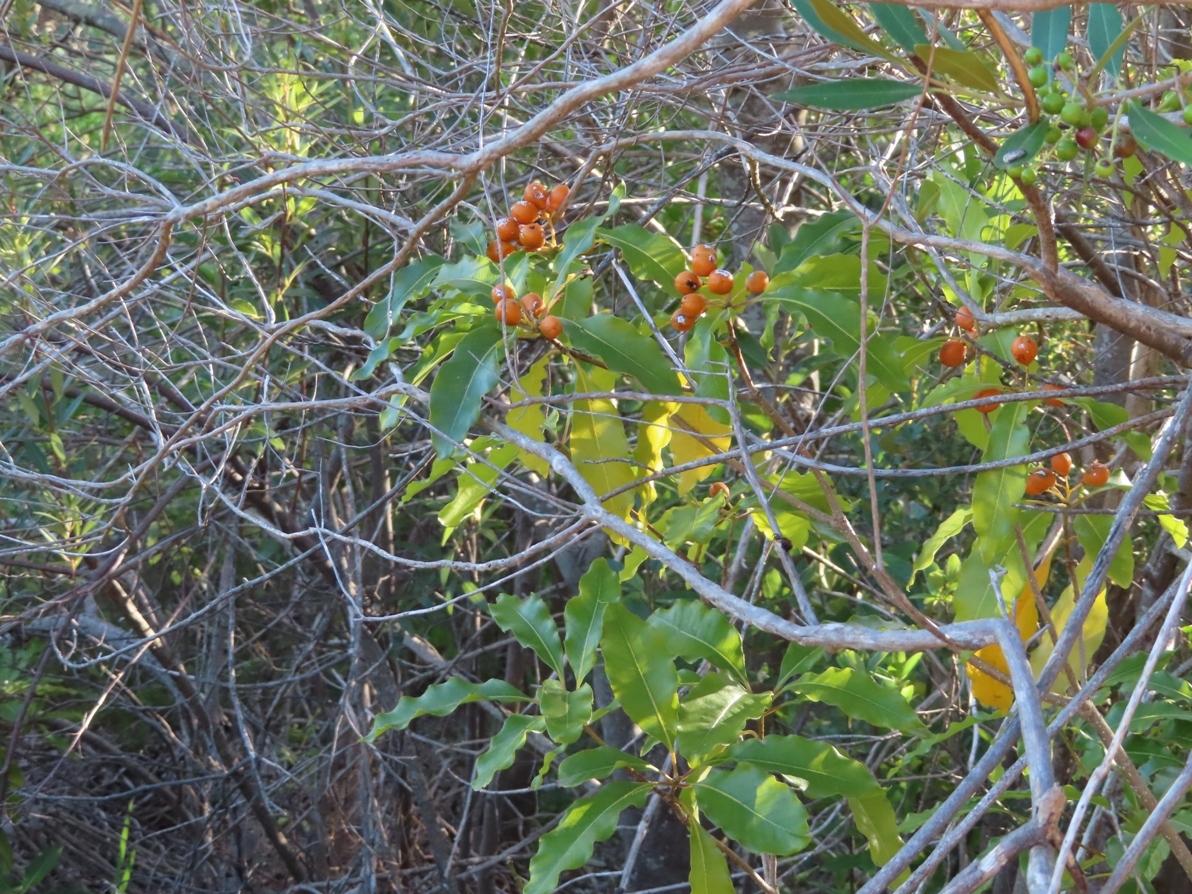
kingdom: Plantae
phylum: Tracheophyta
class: Magnoliopsida
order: Apiales
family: Pittosporaceae
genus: Pittosporum
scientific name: Pittosporum undulatum
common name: Australian cheesewood
